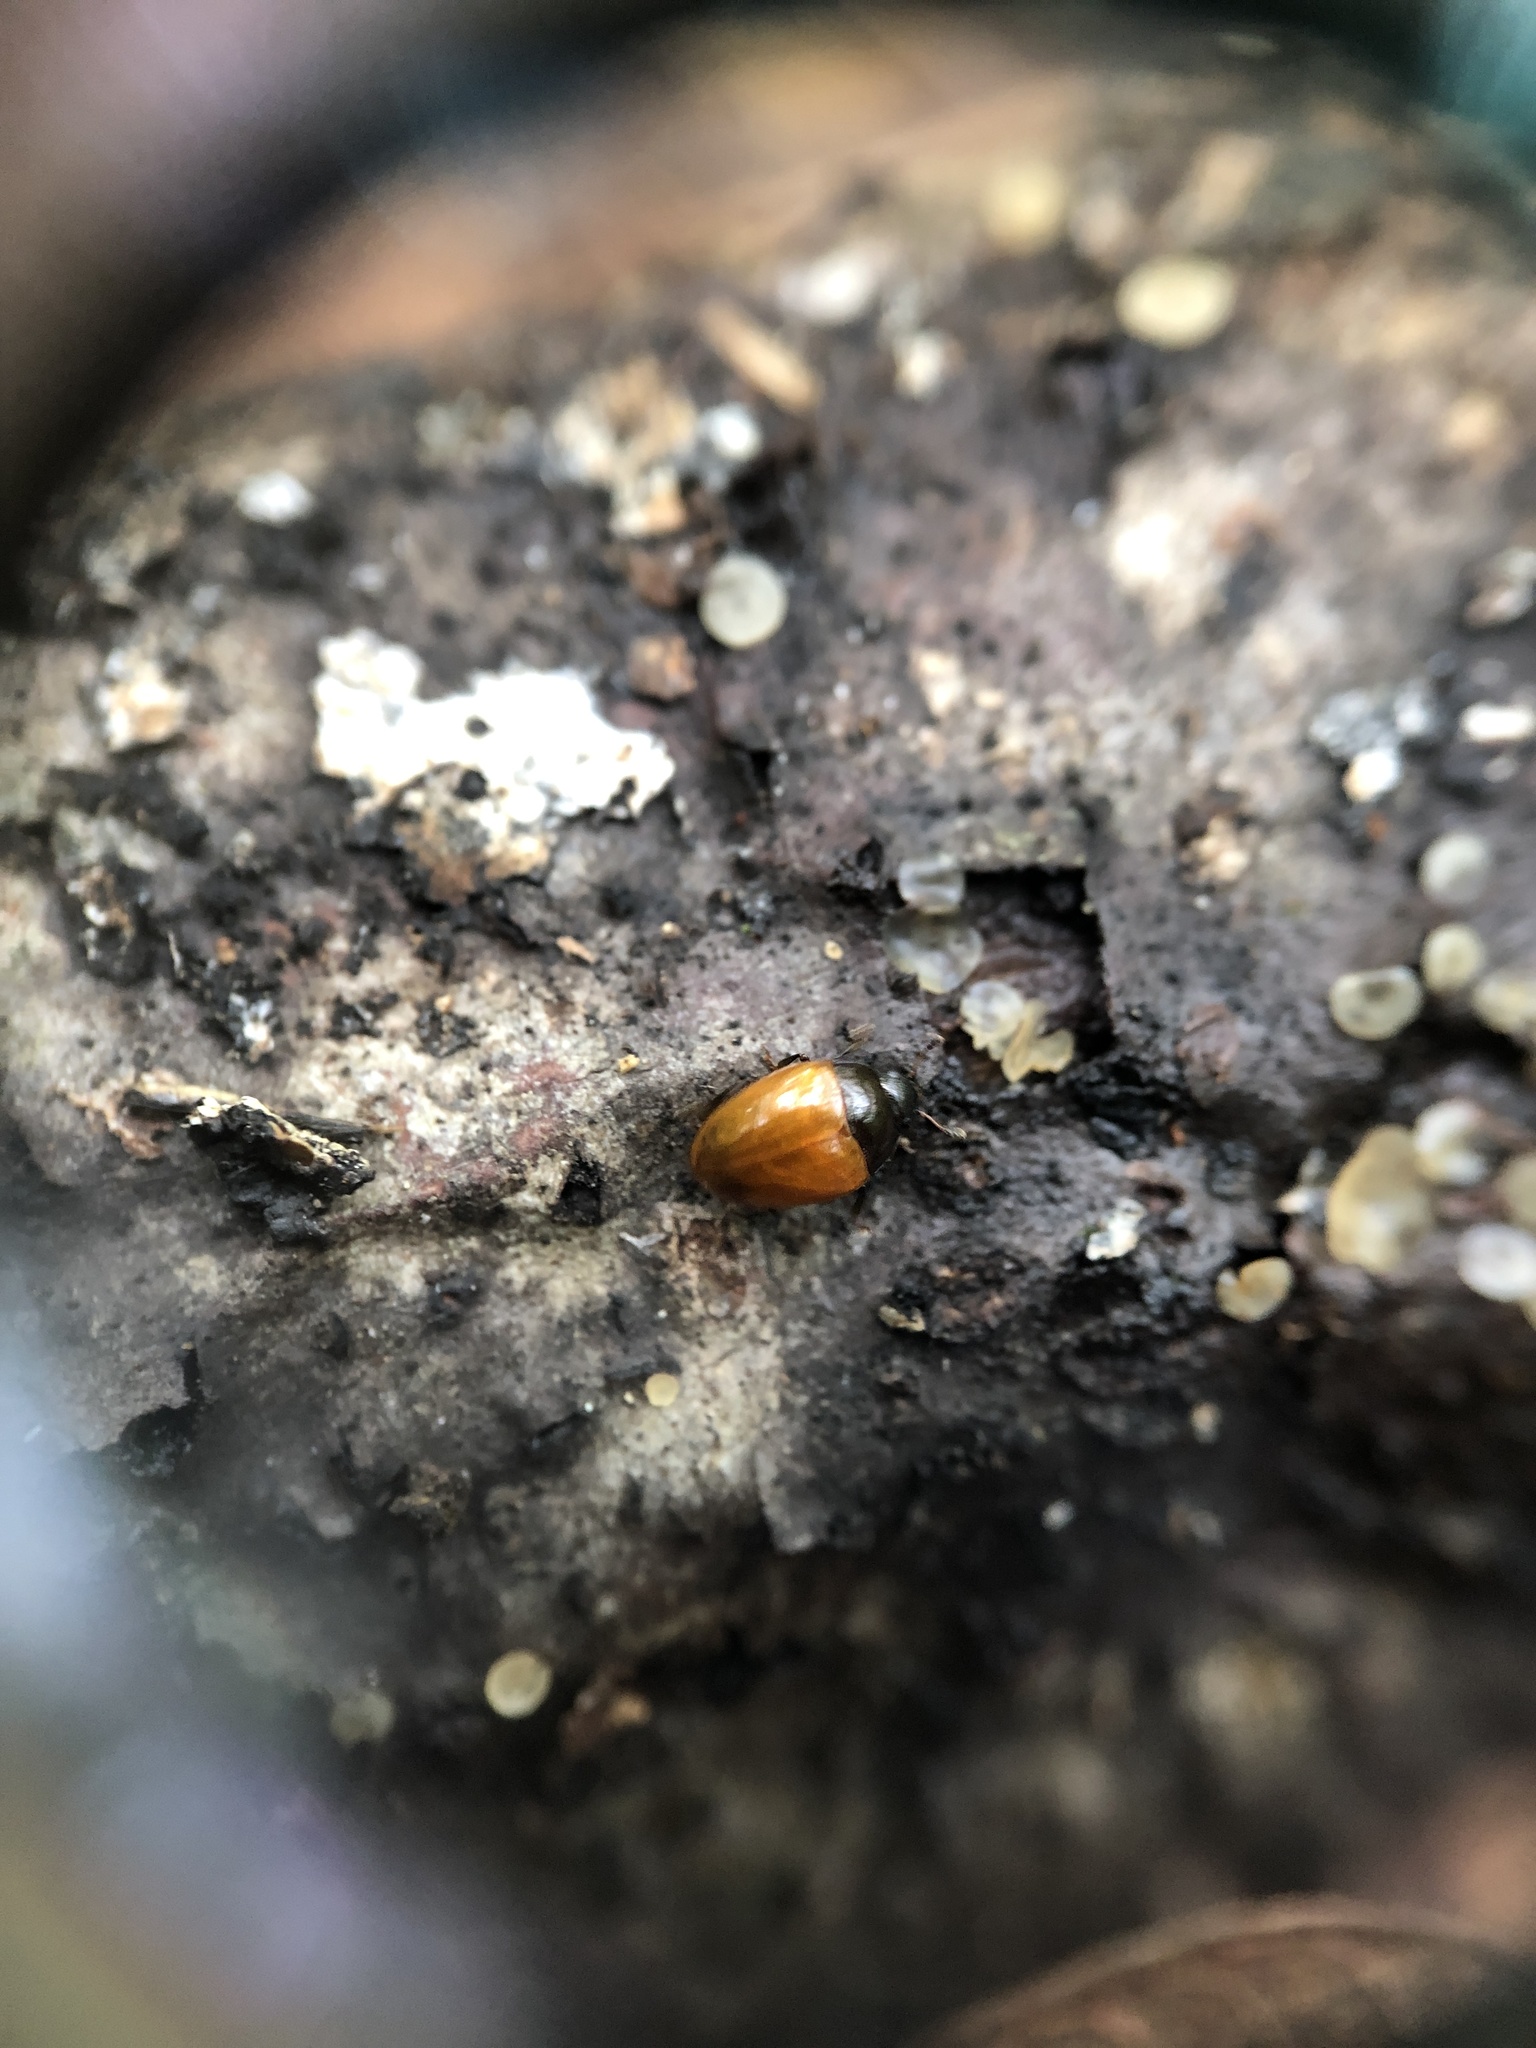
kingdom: Animalia
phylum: Arthropoda
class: Insecta
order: Coleoptera
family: Erotylidae
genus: Tritoma
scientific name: Tritoma sanguinipennis
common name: Red-winged tritoma
